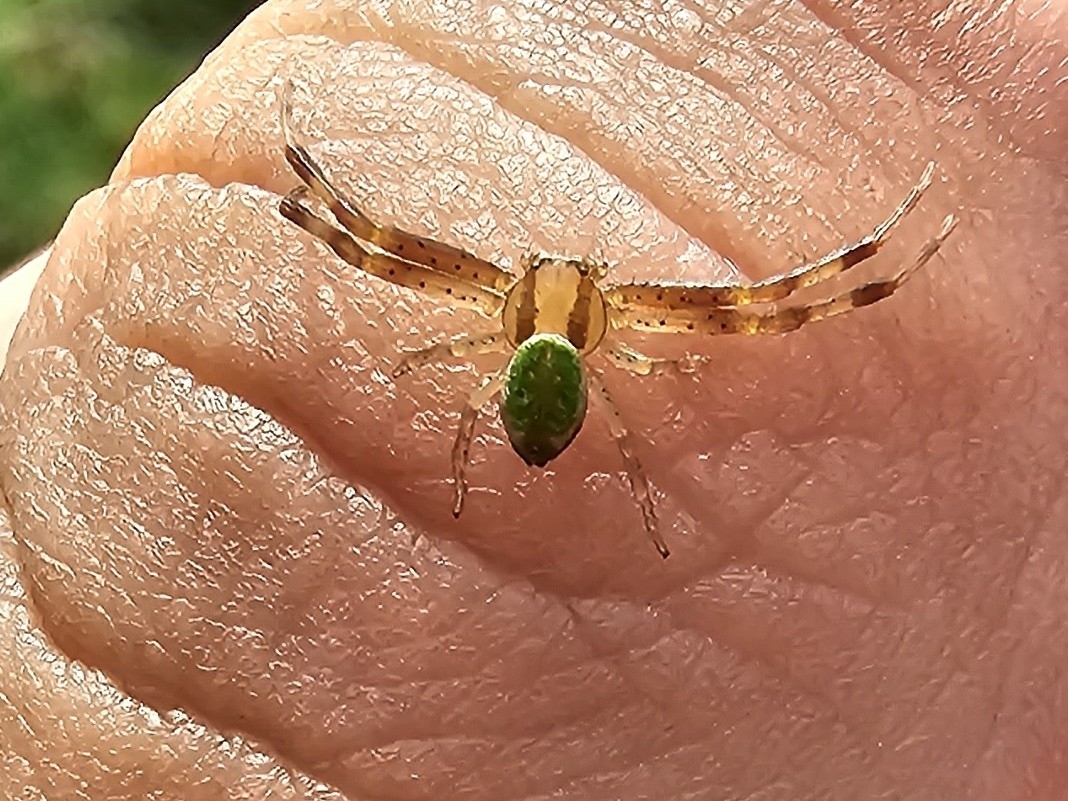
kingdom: Animalia
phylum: Arthropoda
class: Arachnida
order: Araneae
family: Thomisidae
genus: Ebrechtella
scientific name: Ebrechtella tricuspidata
